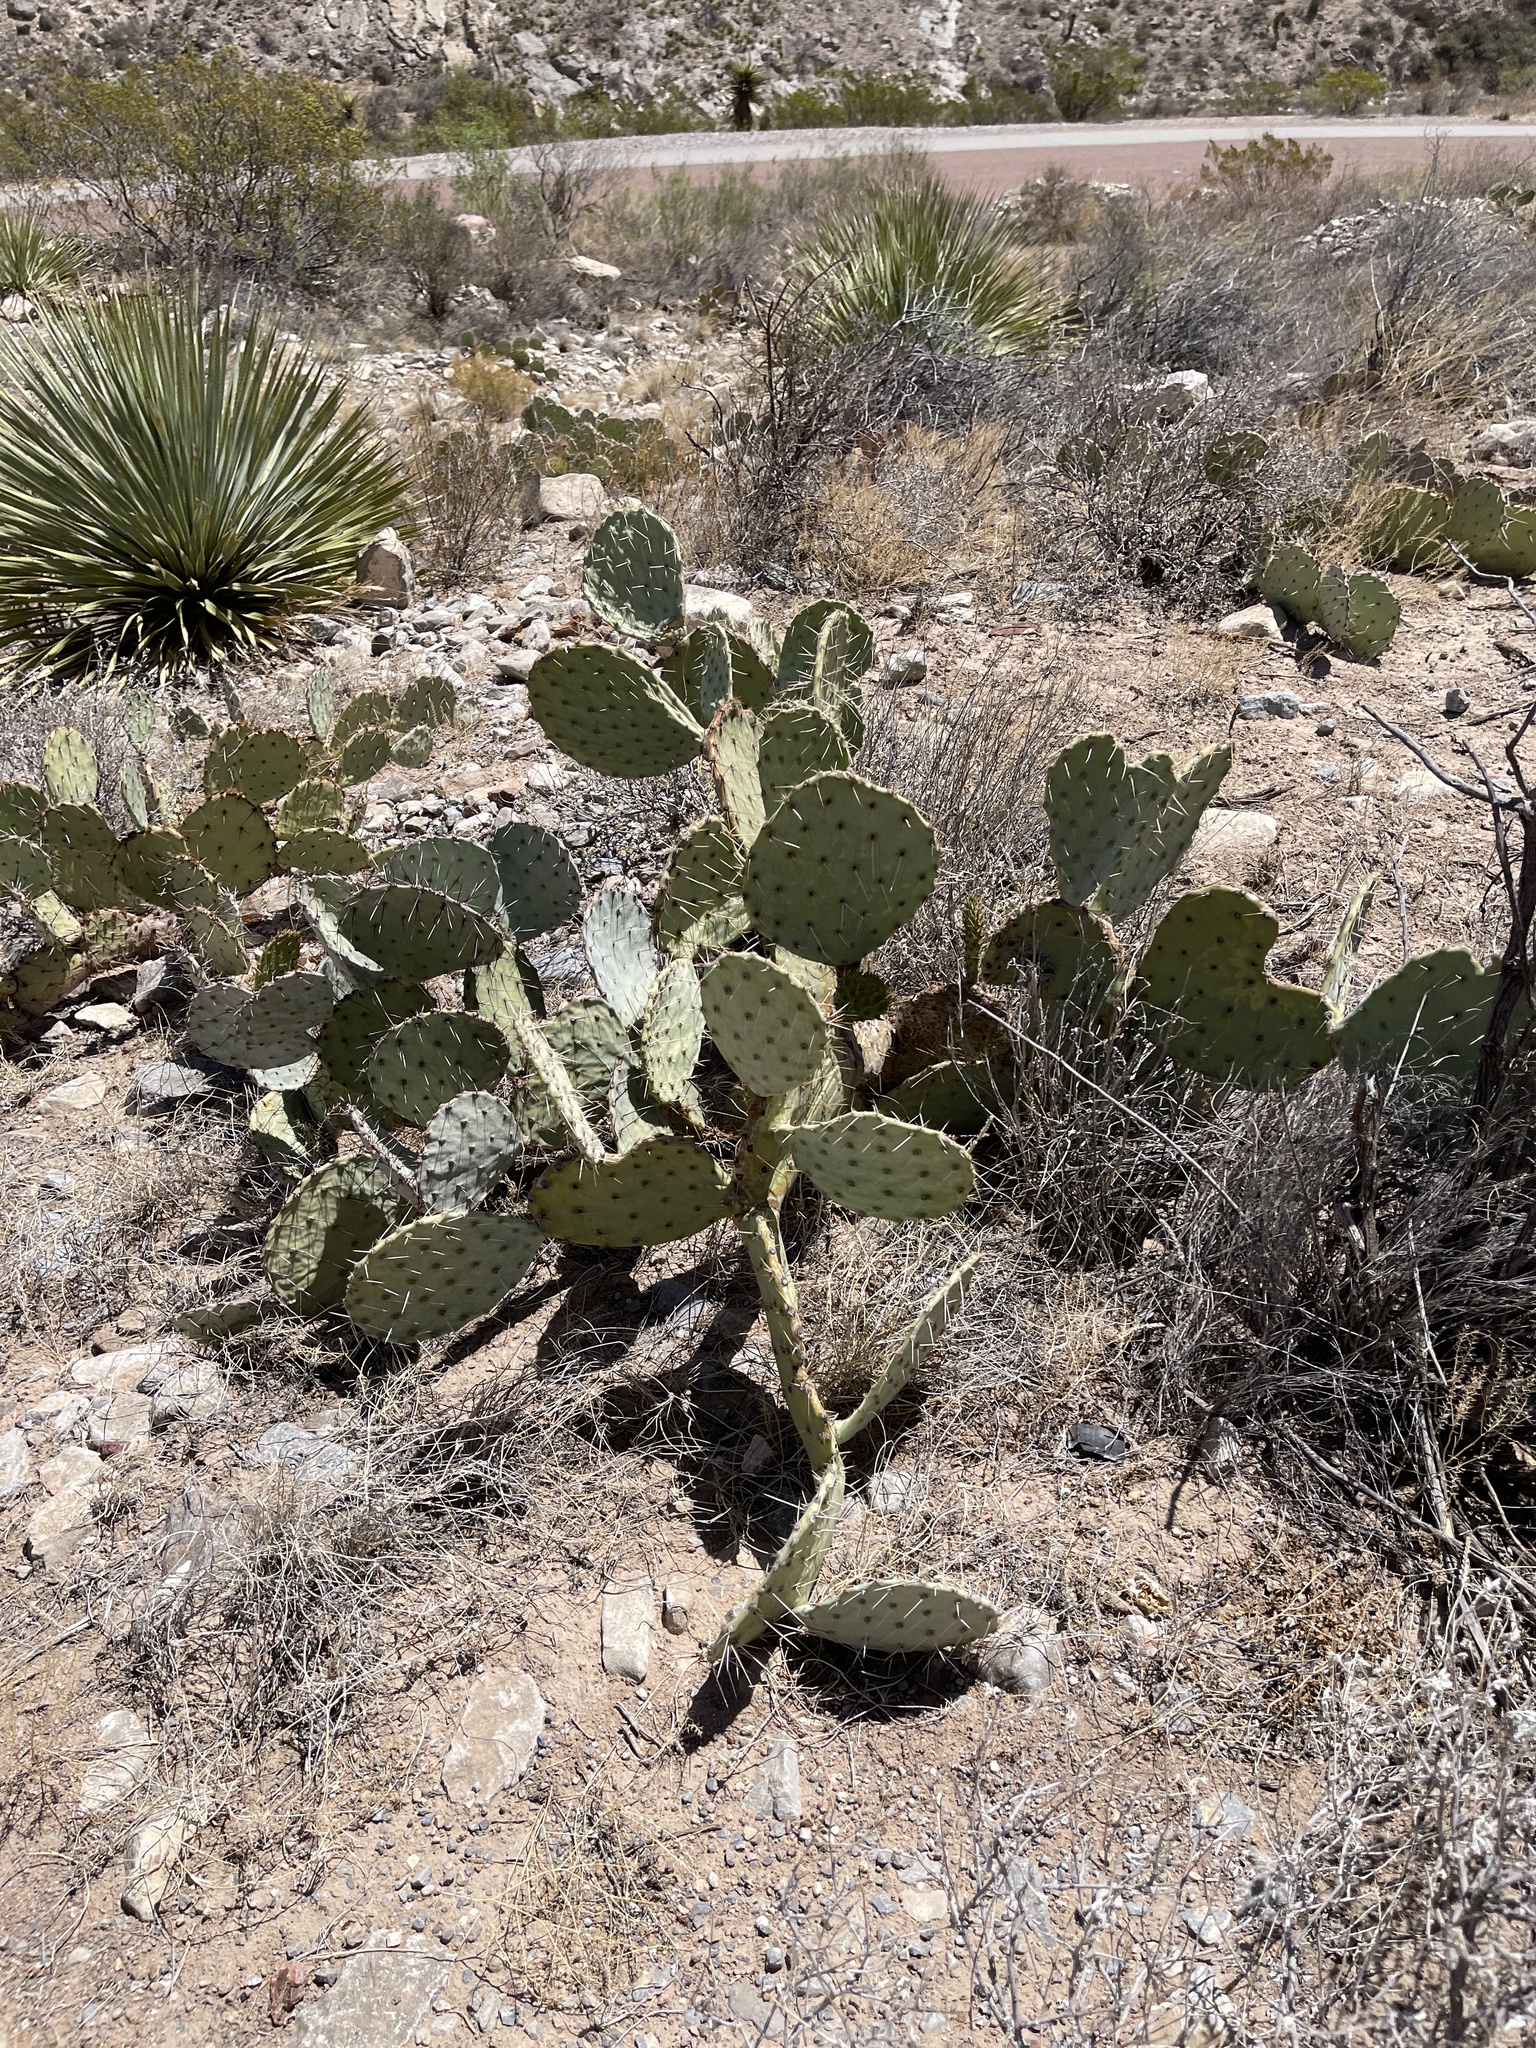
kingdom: Plantae
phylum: Tracheophyta
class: Magnoliopsida
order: Caryophyllales
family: Cactaceae
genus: Opuntia
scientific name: Opuntia engelmannii
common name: Cactus-apple
